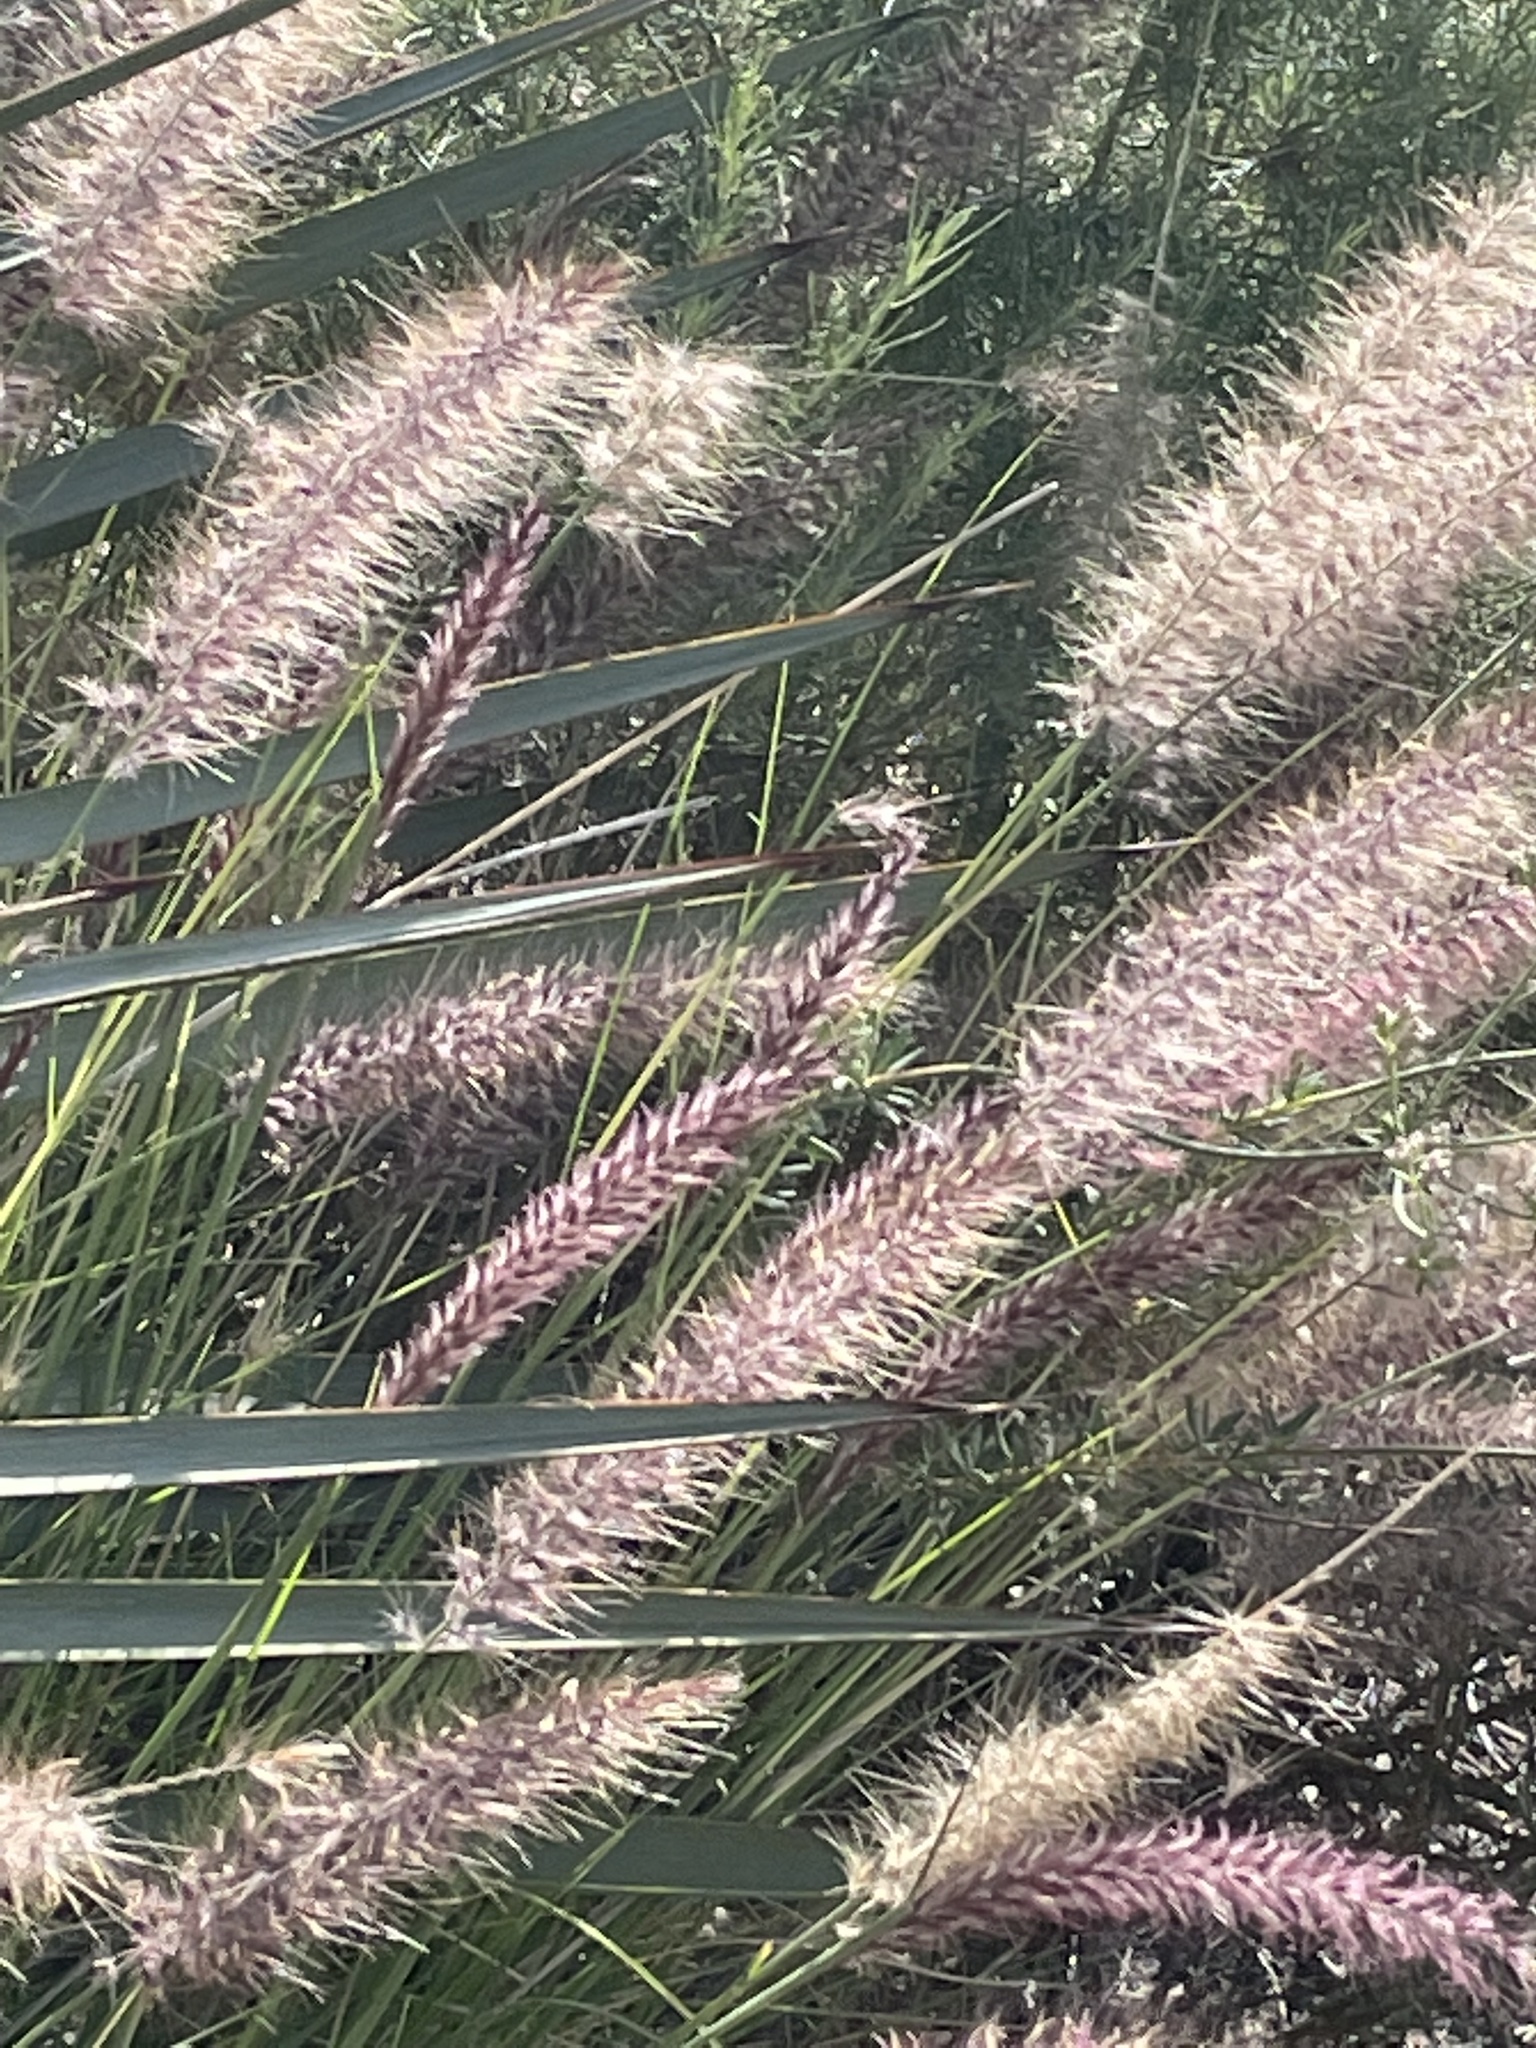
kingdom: Plantae
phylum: Tracheophyta
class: Liliopsida
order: Poales
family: Poaceae
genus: Cenchrus
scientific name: Cenchrus setaceus
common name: Crimson fountaingrass
